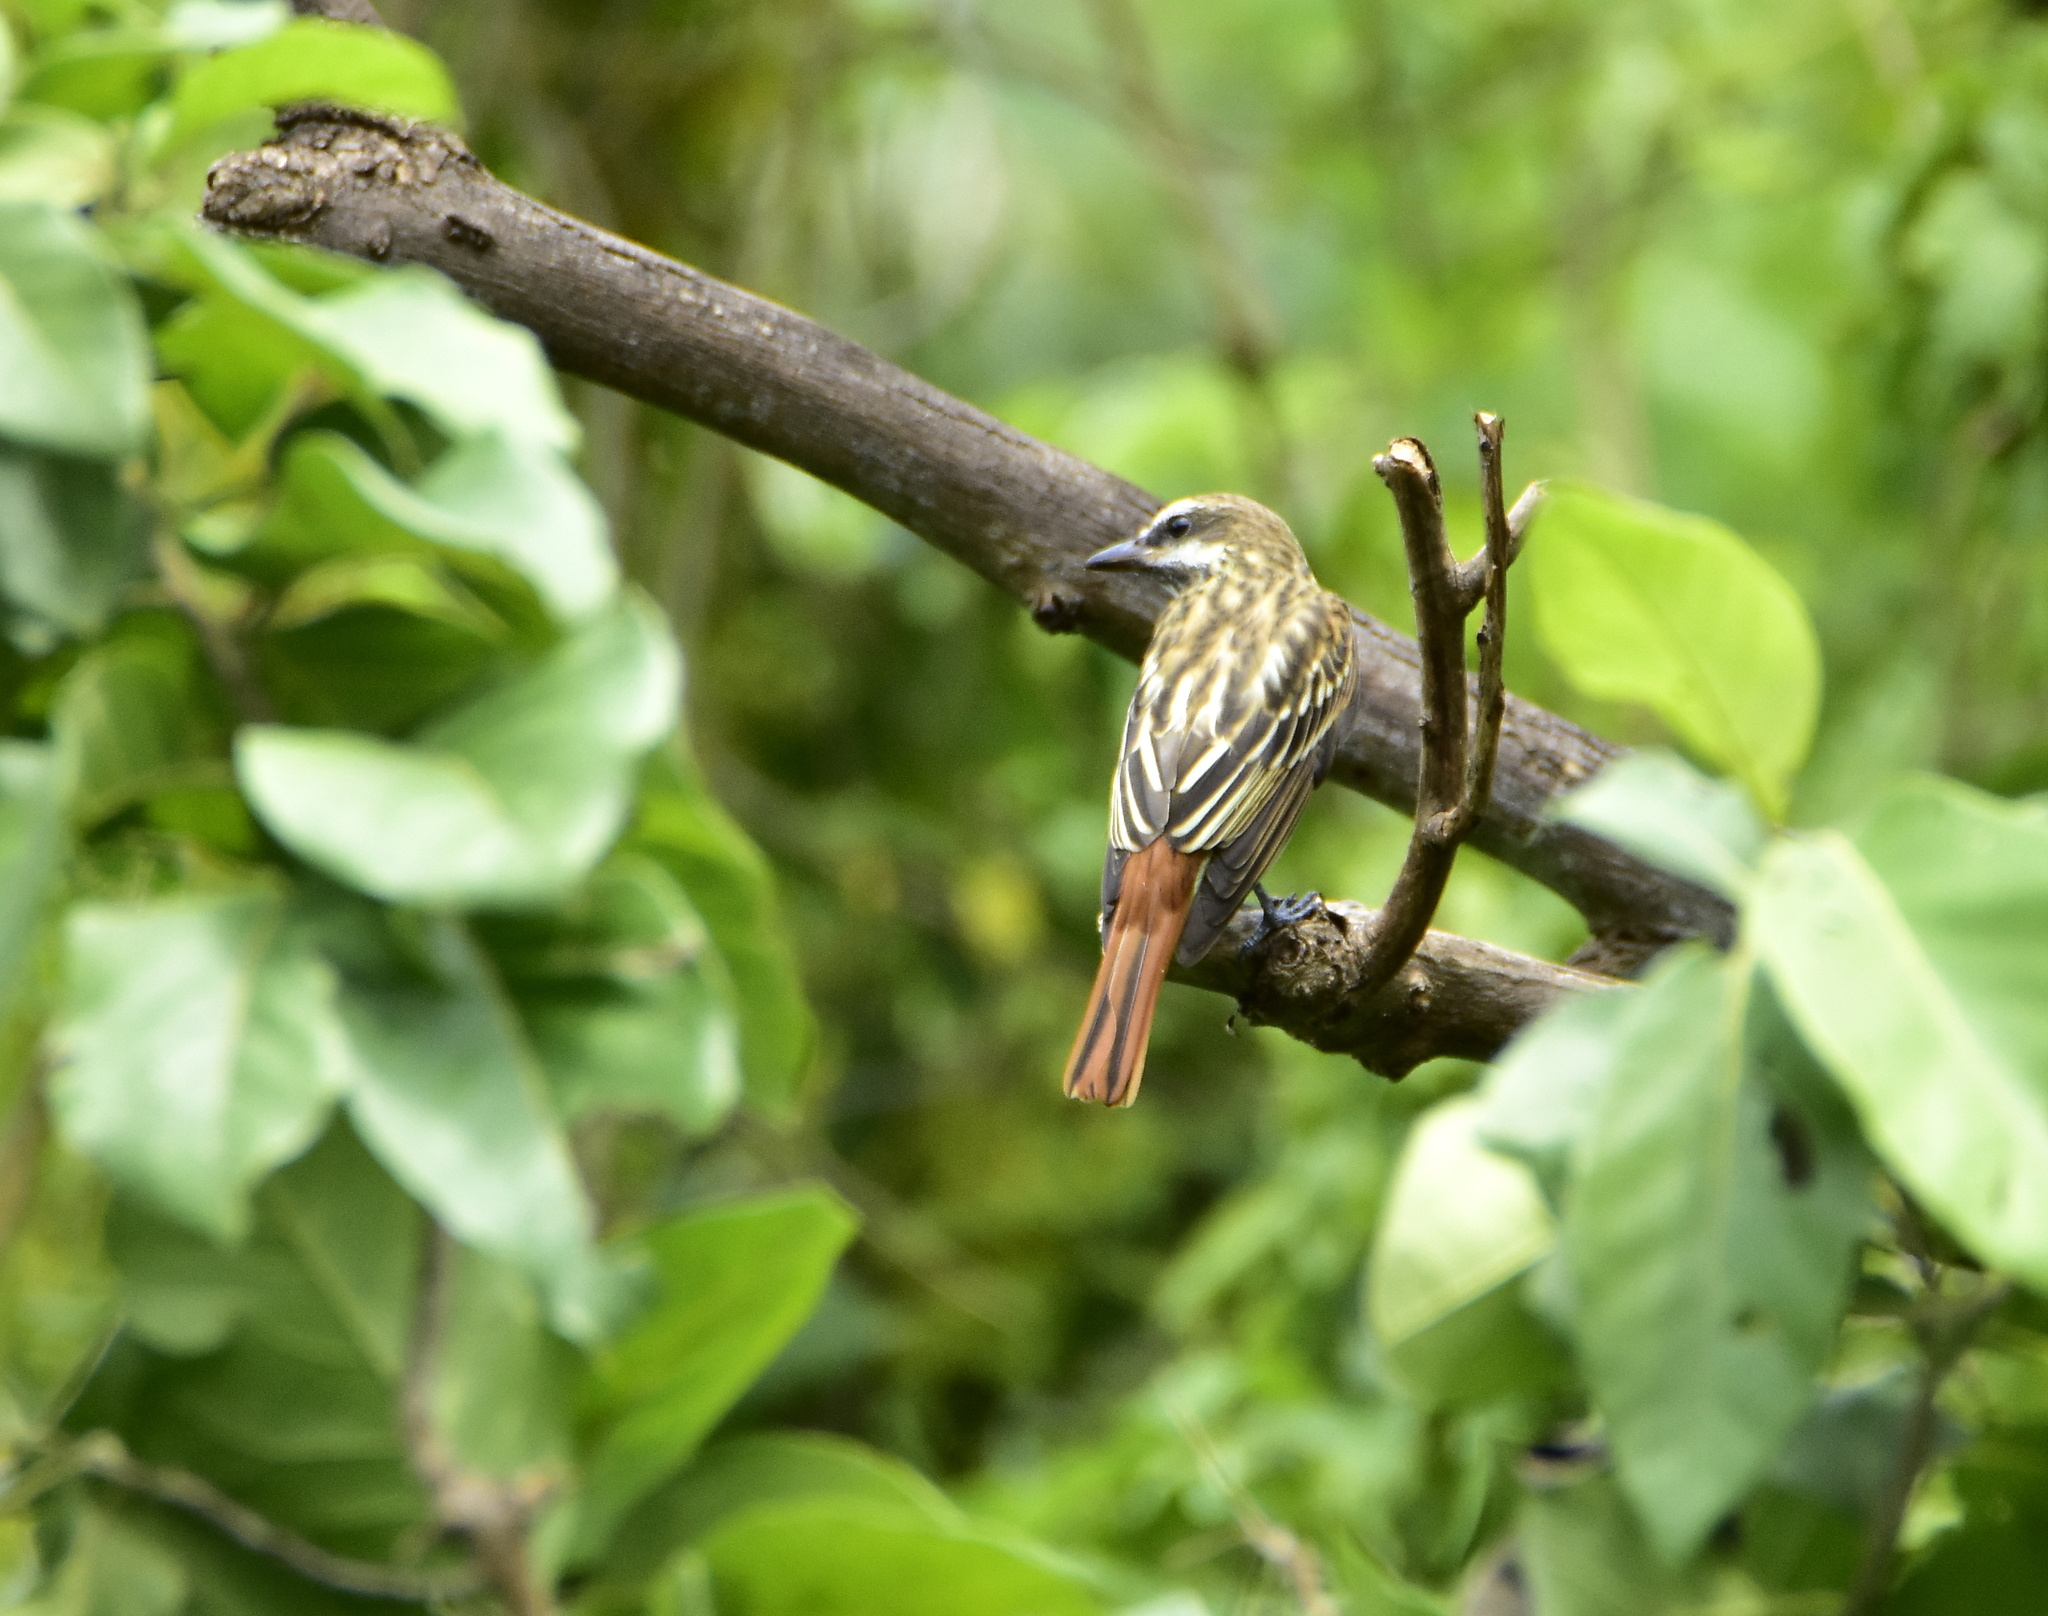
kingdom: Animalia
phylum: Chordata
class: Aves
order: Passeriformes
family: Tyrannidae
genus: Myiodynastes
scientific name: Myiodynastes luteiventris
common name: Sulphur-bellied flycatcher
